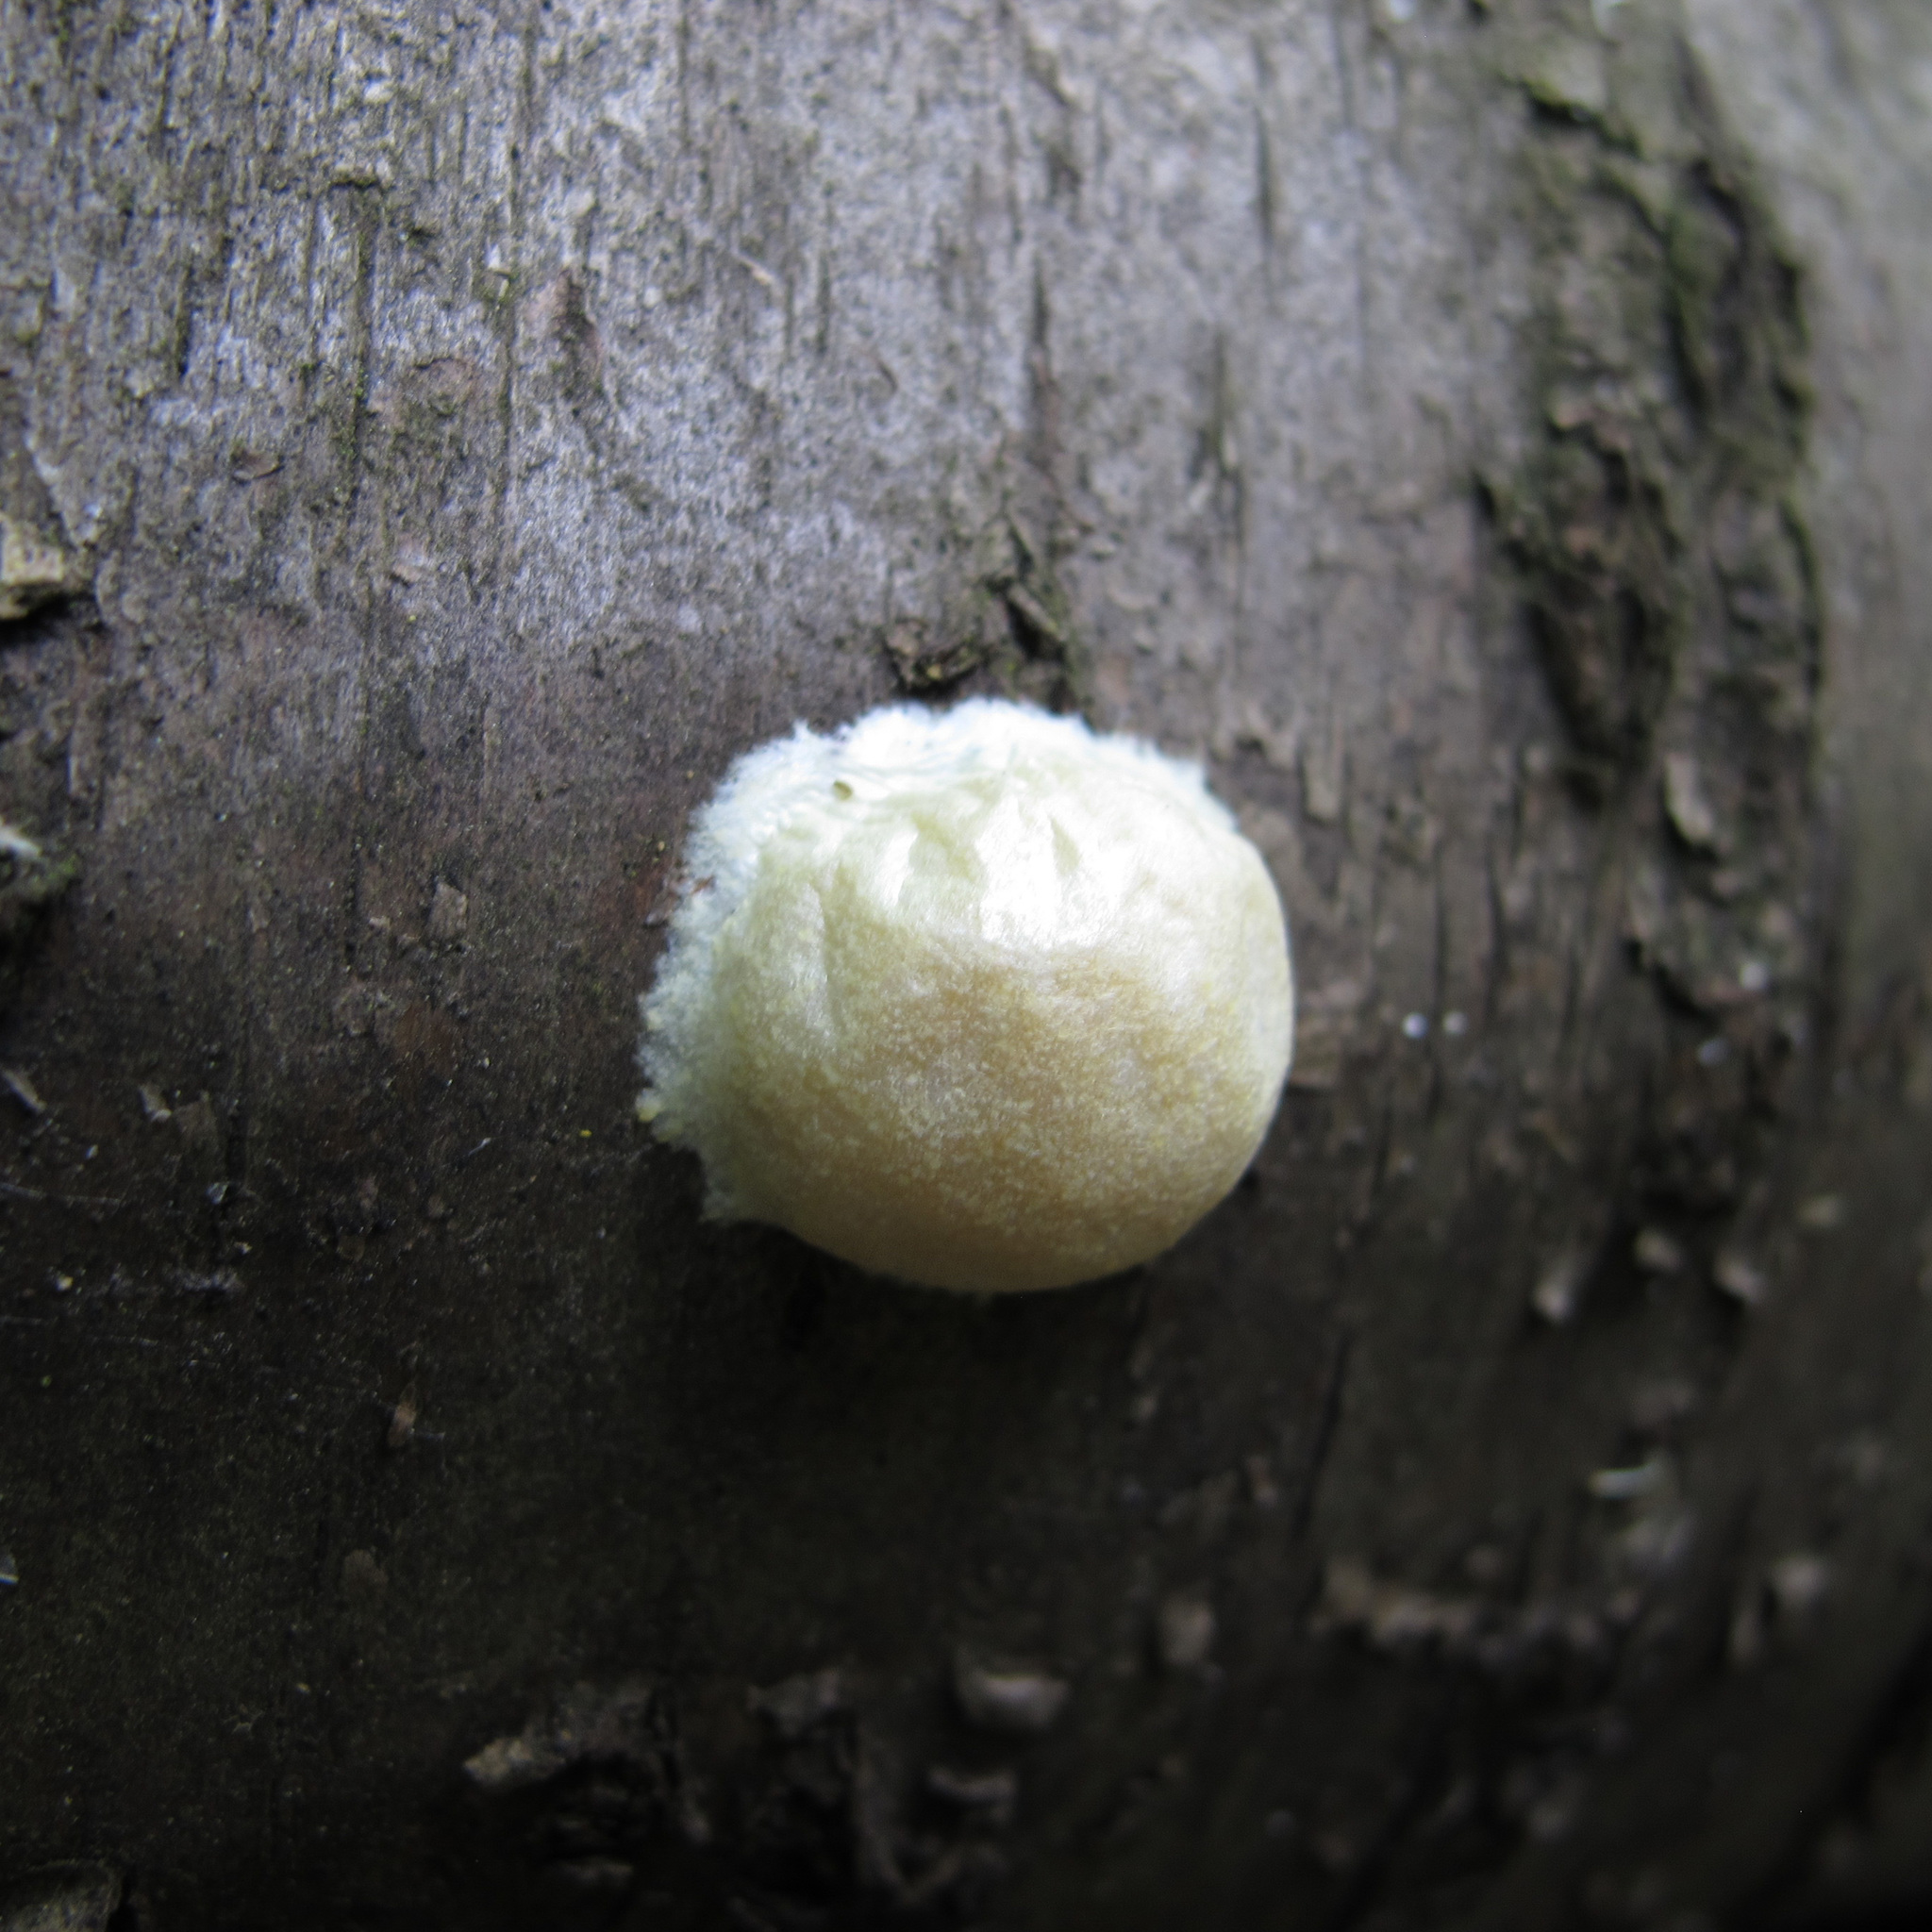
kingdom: Protozoa
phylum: Mycetozoa
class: Myxomycetes
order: Cribrariales
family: Tubiferaceae
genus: Reticularia
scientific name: Reticularia lycoperdon
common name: False puffball
